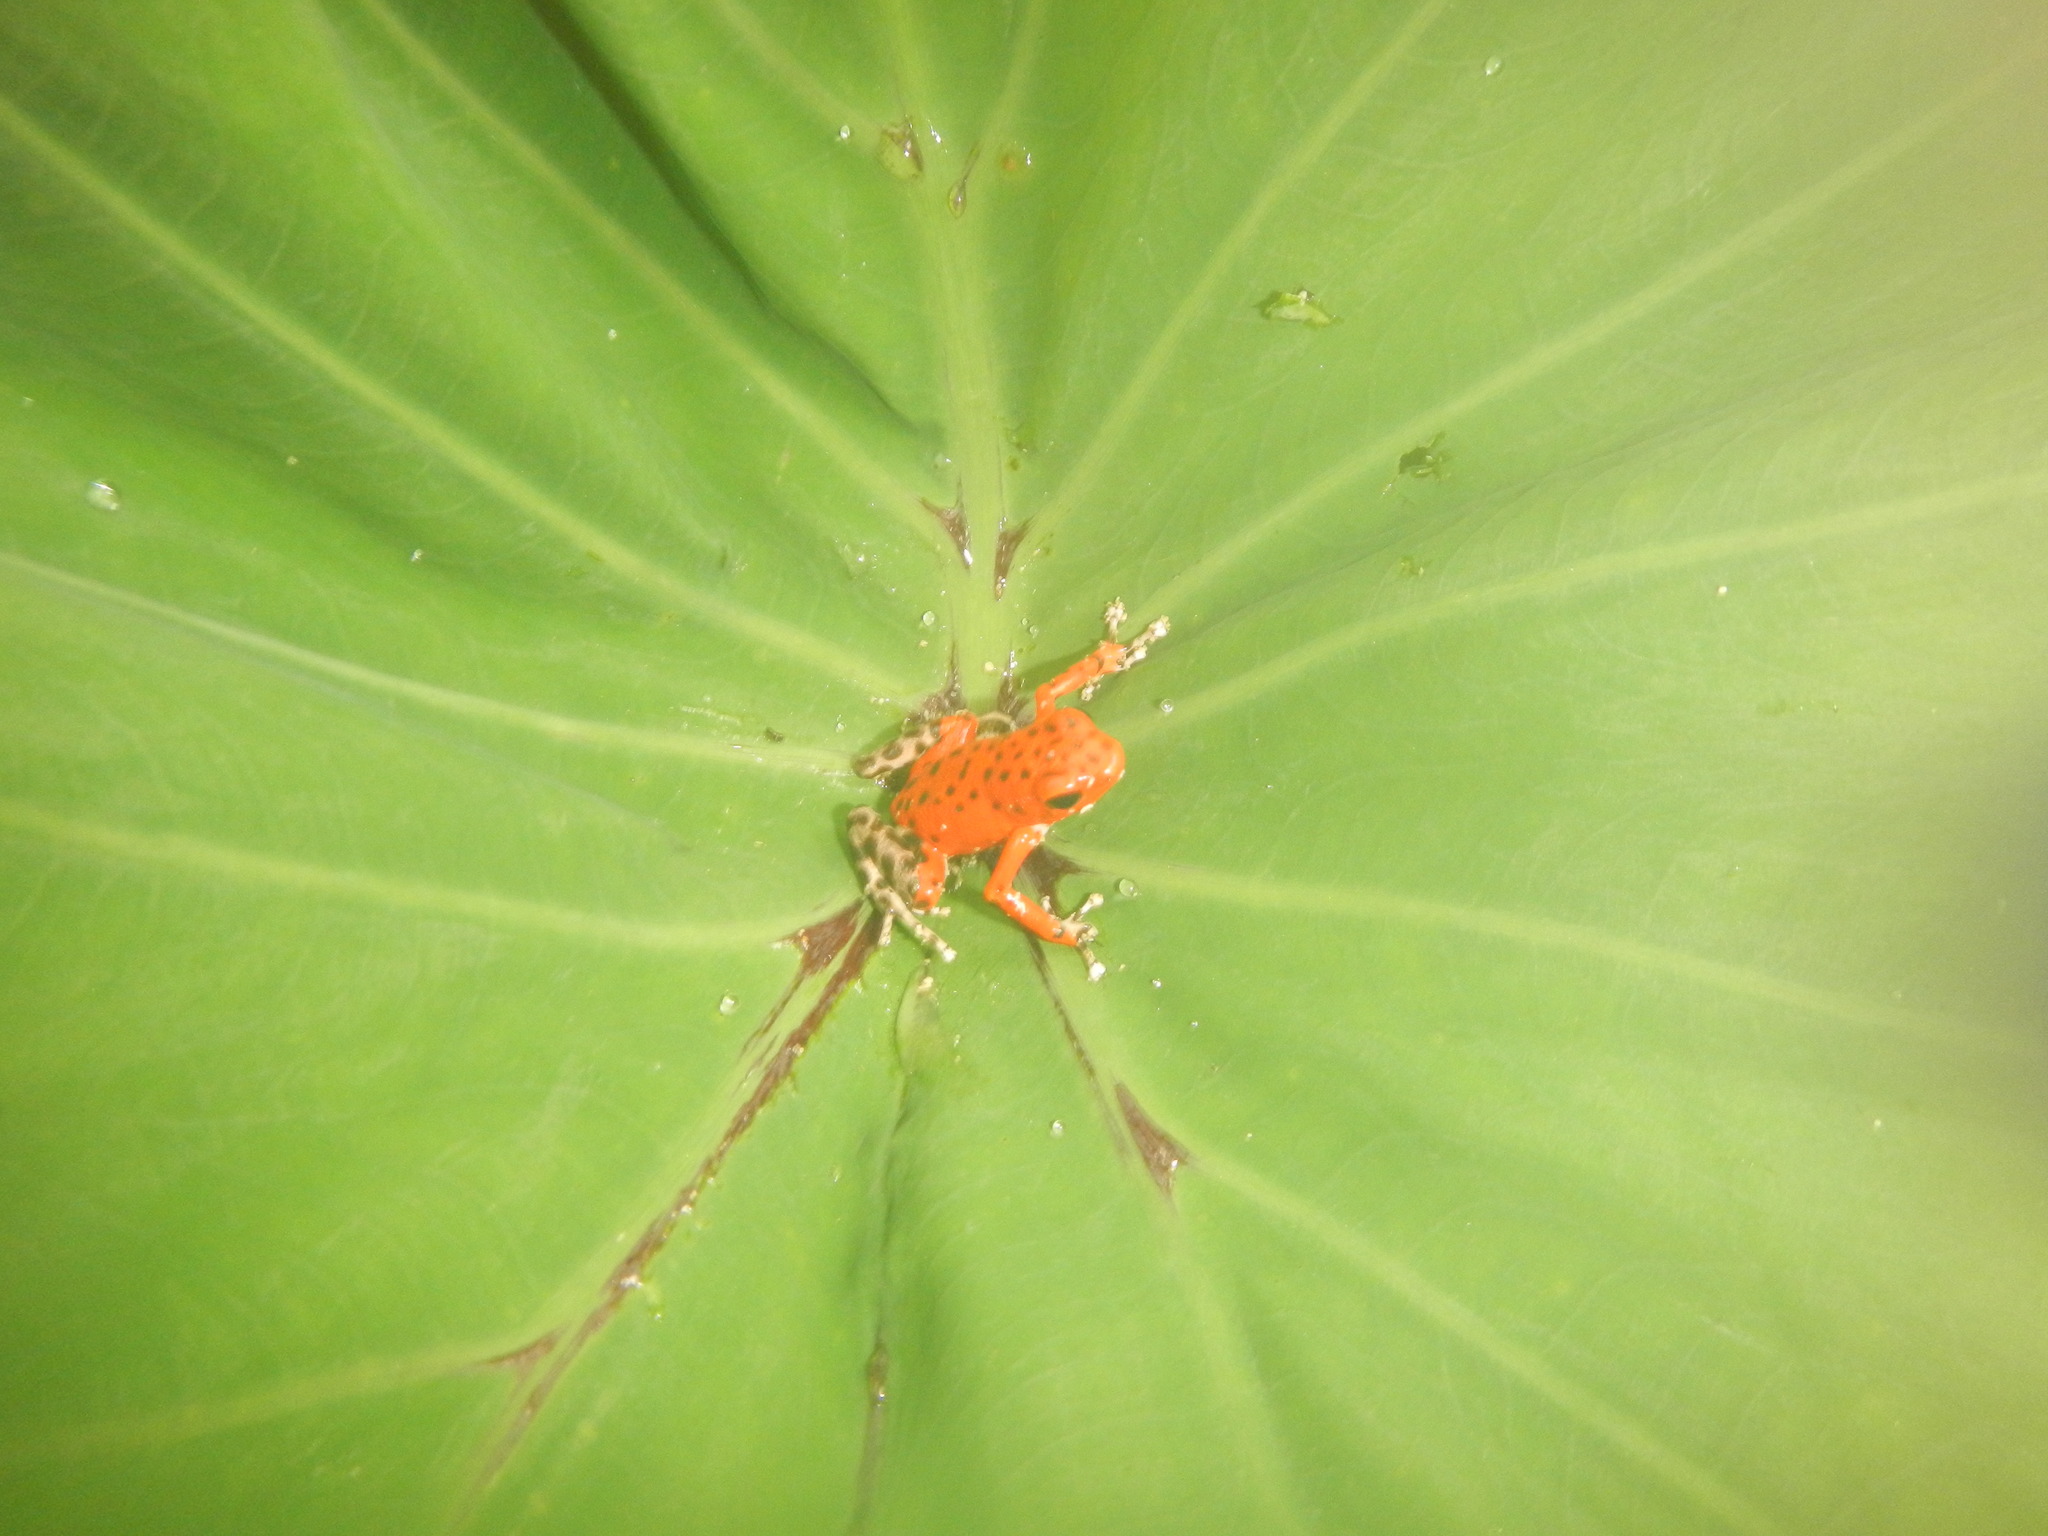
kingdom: Animalia
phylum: Chordata
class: Amphibia
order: Anura
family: Dendrobatidae
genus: Oophaga
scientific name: Oophaga pumilio
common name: Flaming poison frog
